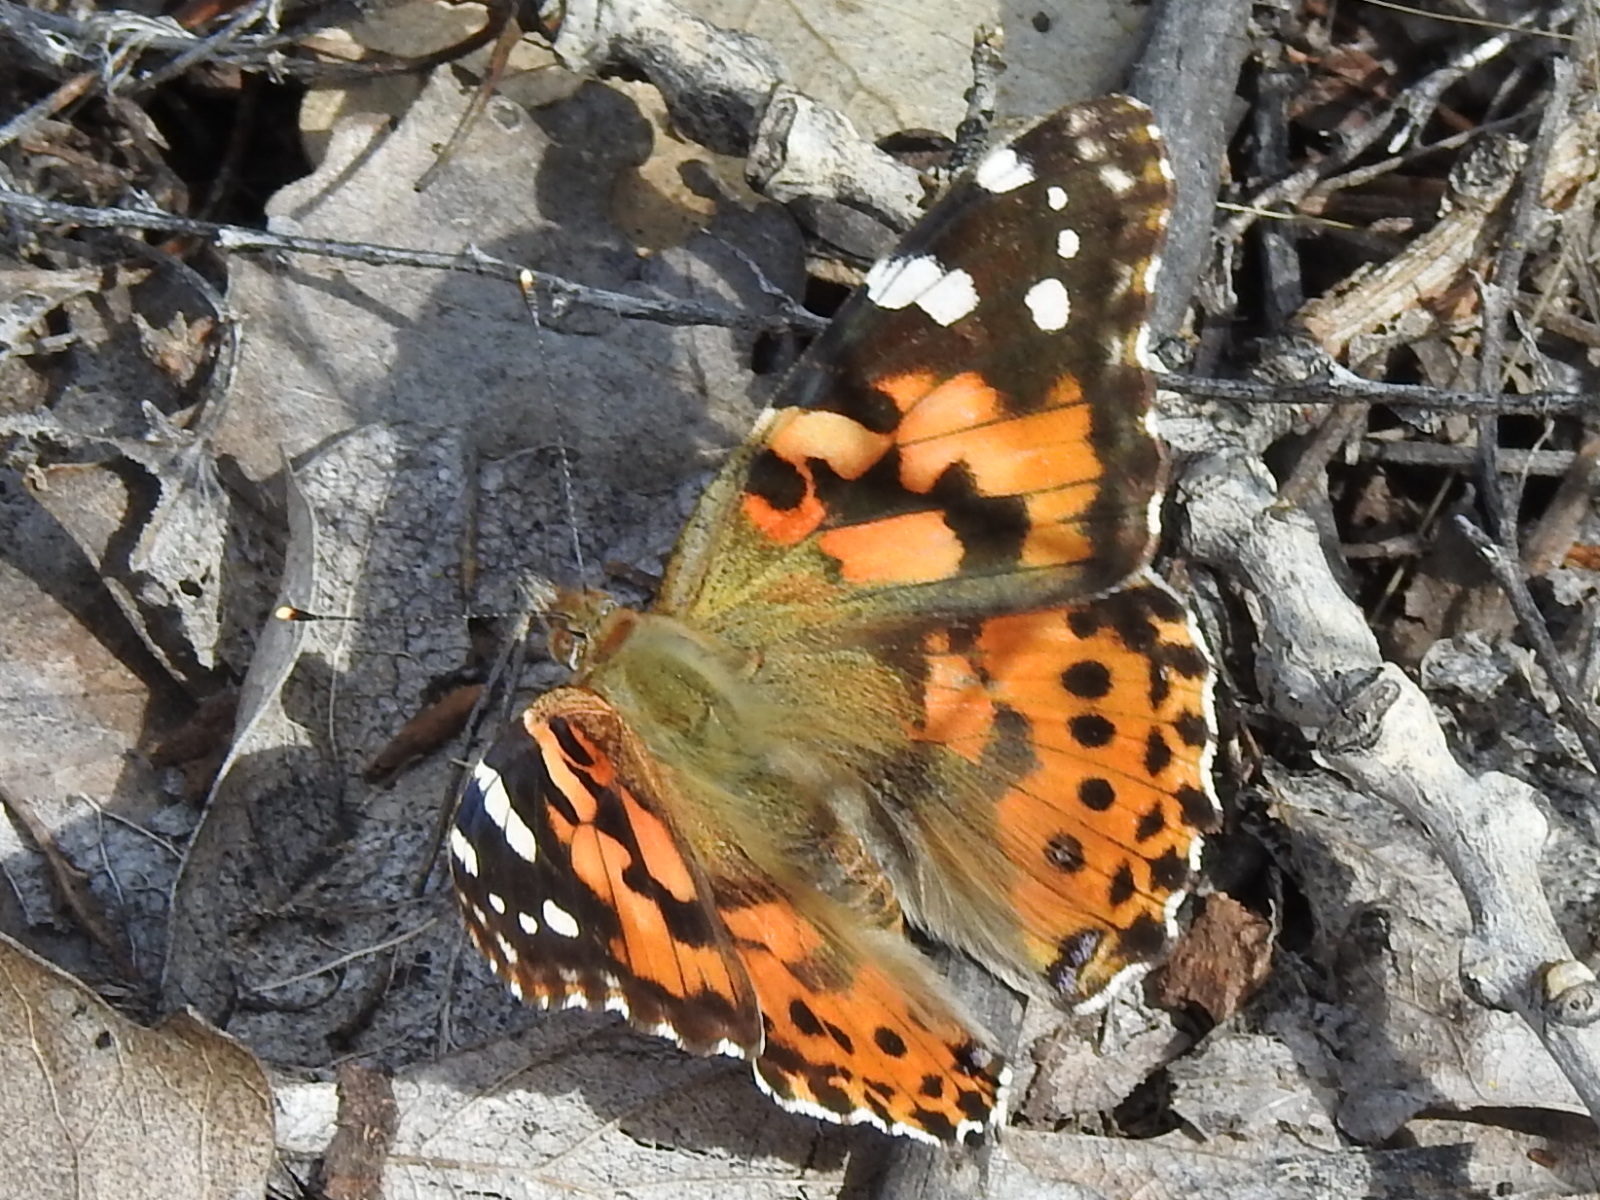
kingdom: Animalia
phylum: Arthropoda
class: Insecta
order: Lepidoptera
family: Nymphalidae
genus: Vanessa
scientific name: Vanessa cardui
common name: Painted lady
